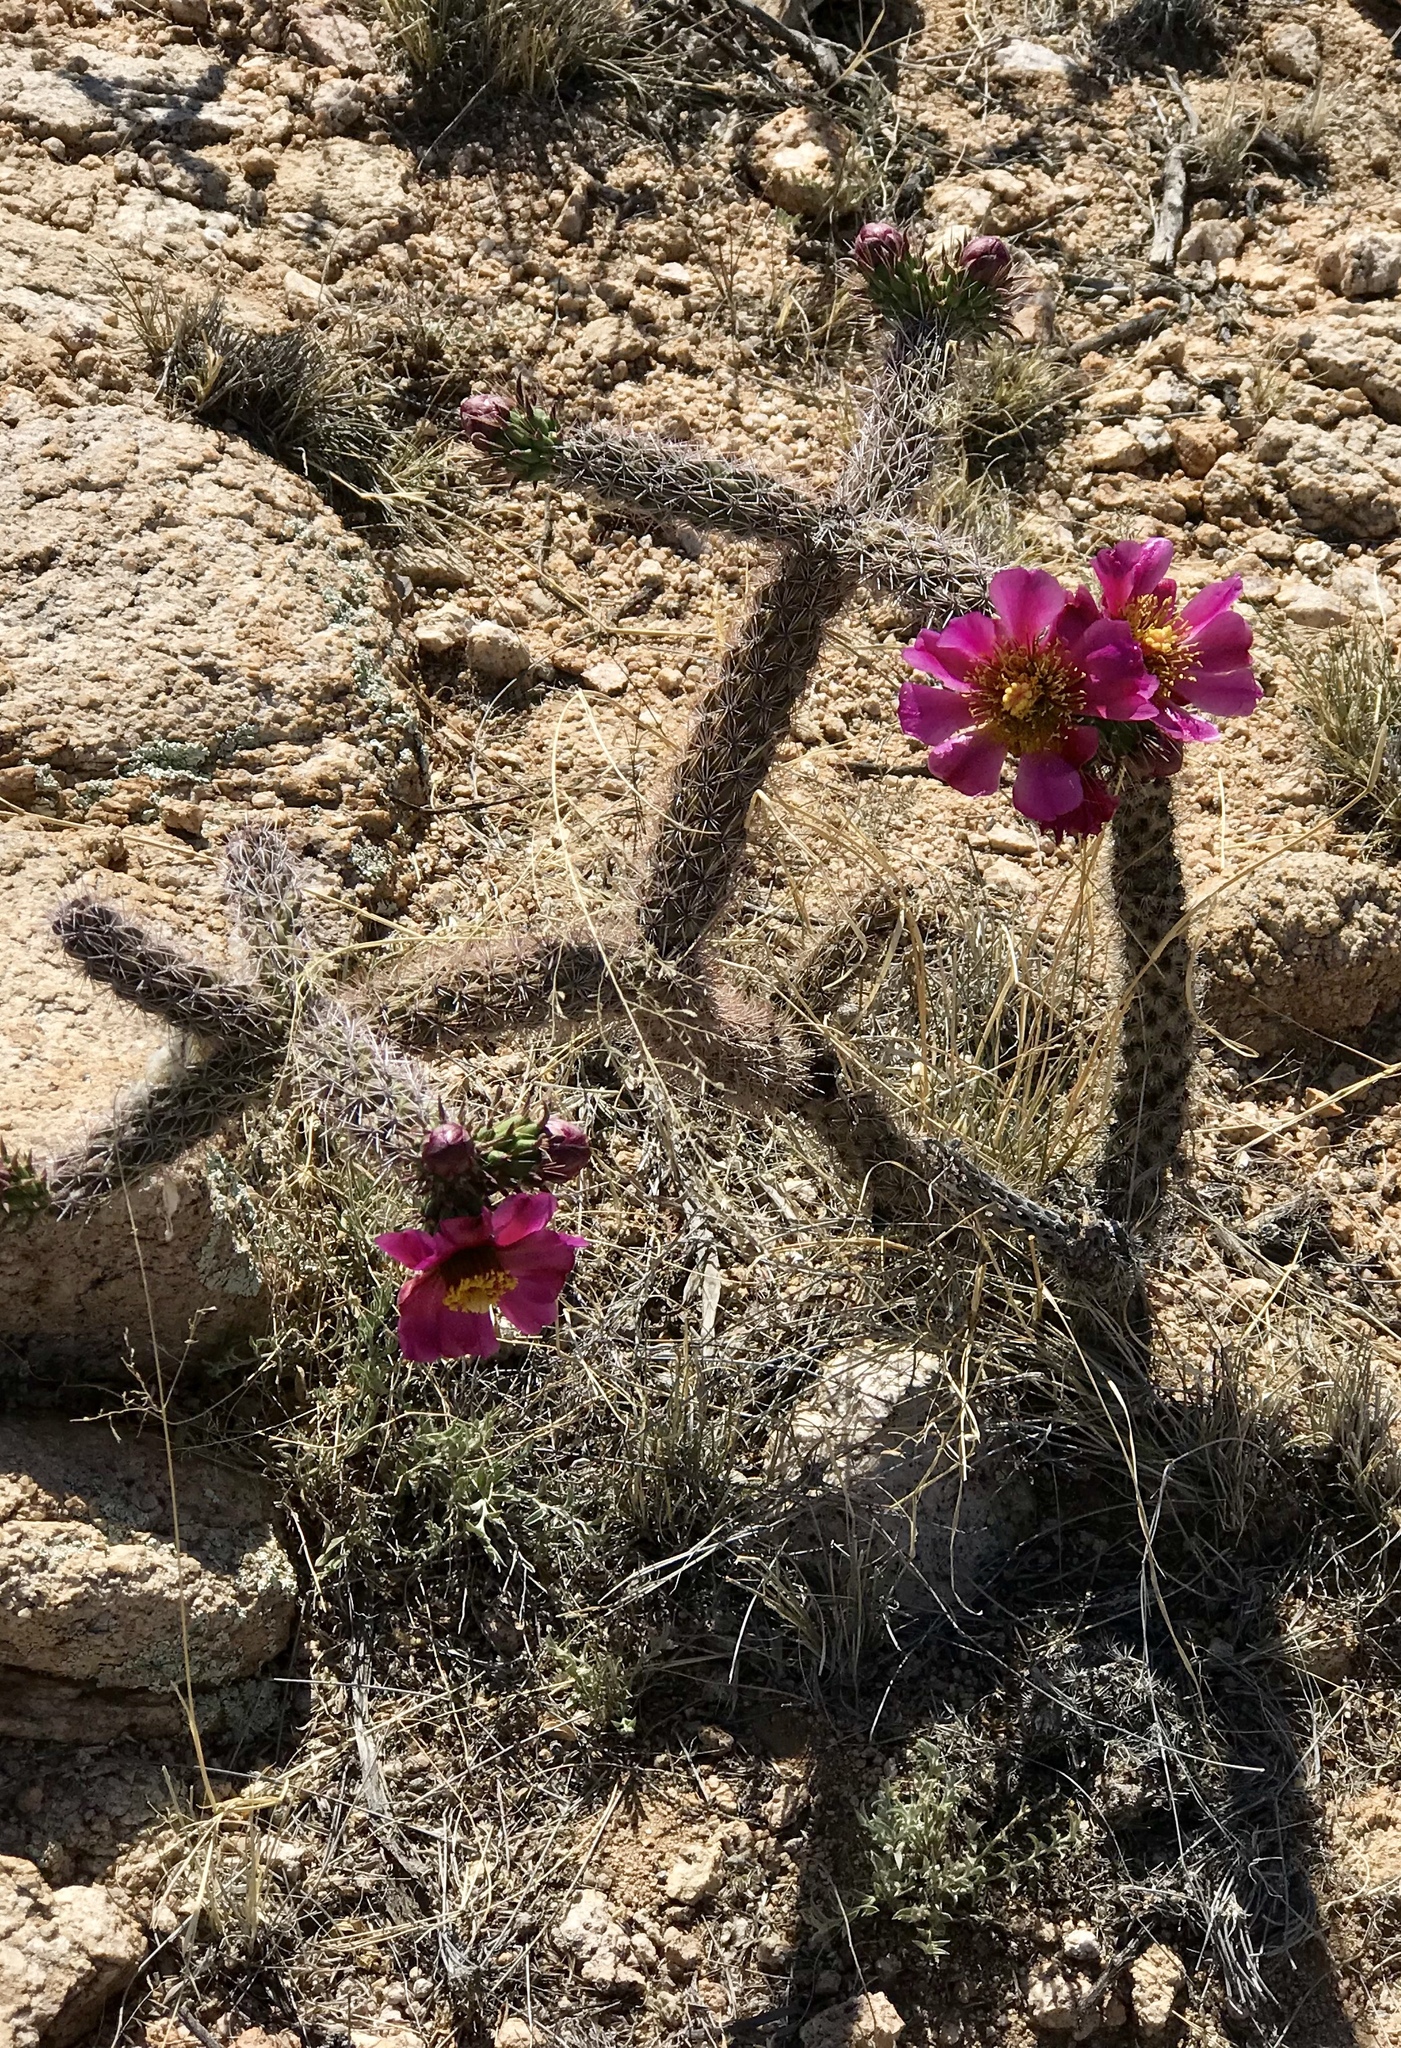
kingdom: Plantae
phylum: Tracheophyta
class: Magnoliopsida
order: Caryophyllales
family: Cactaceae
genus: Cylindropuntia
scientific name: Cylindropuntia imbricata
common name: Candelabrum cactus
